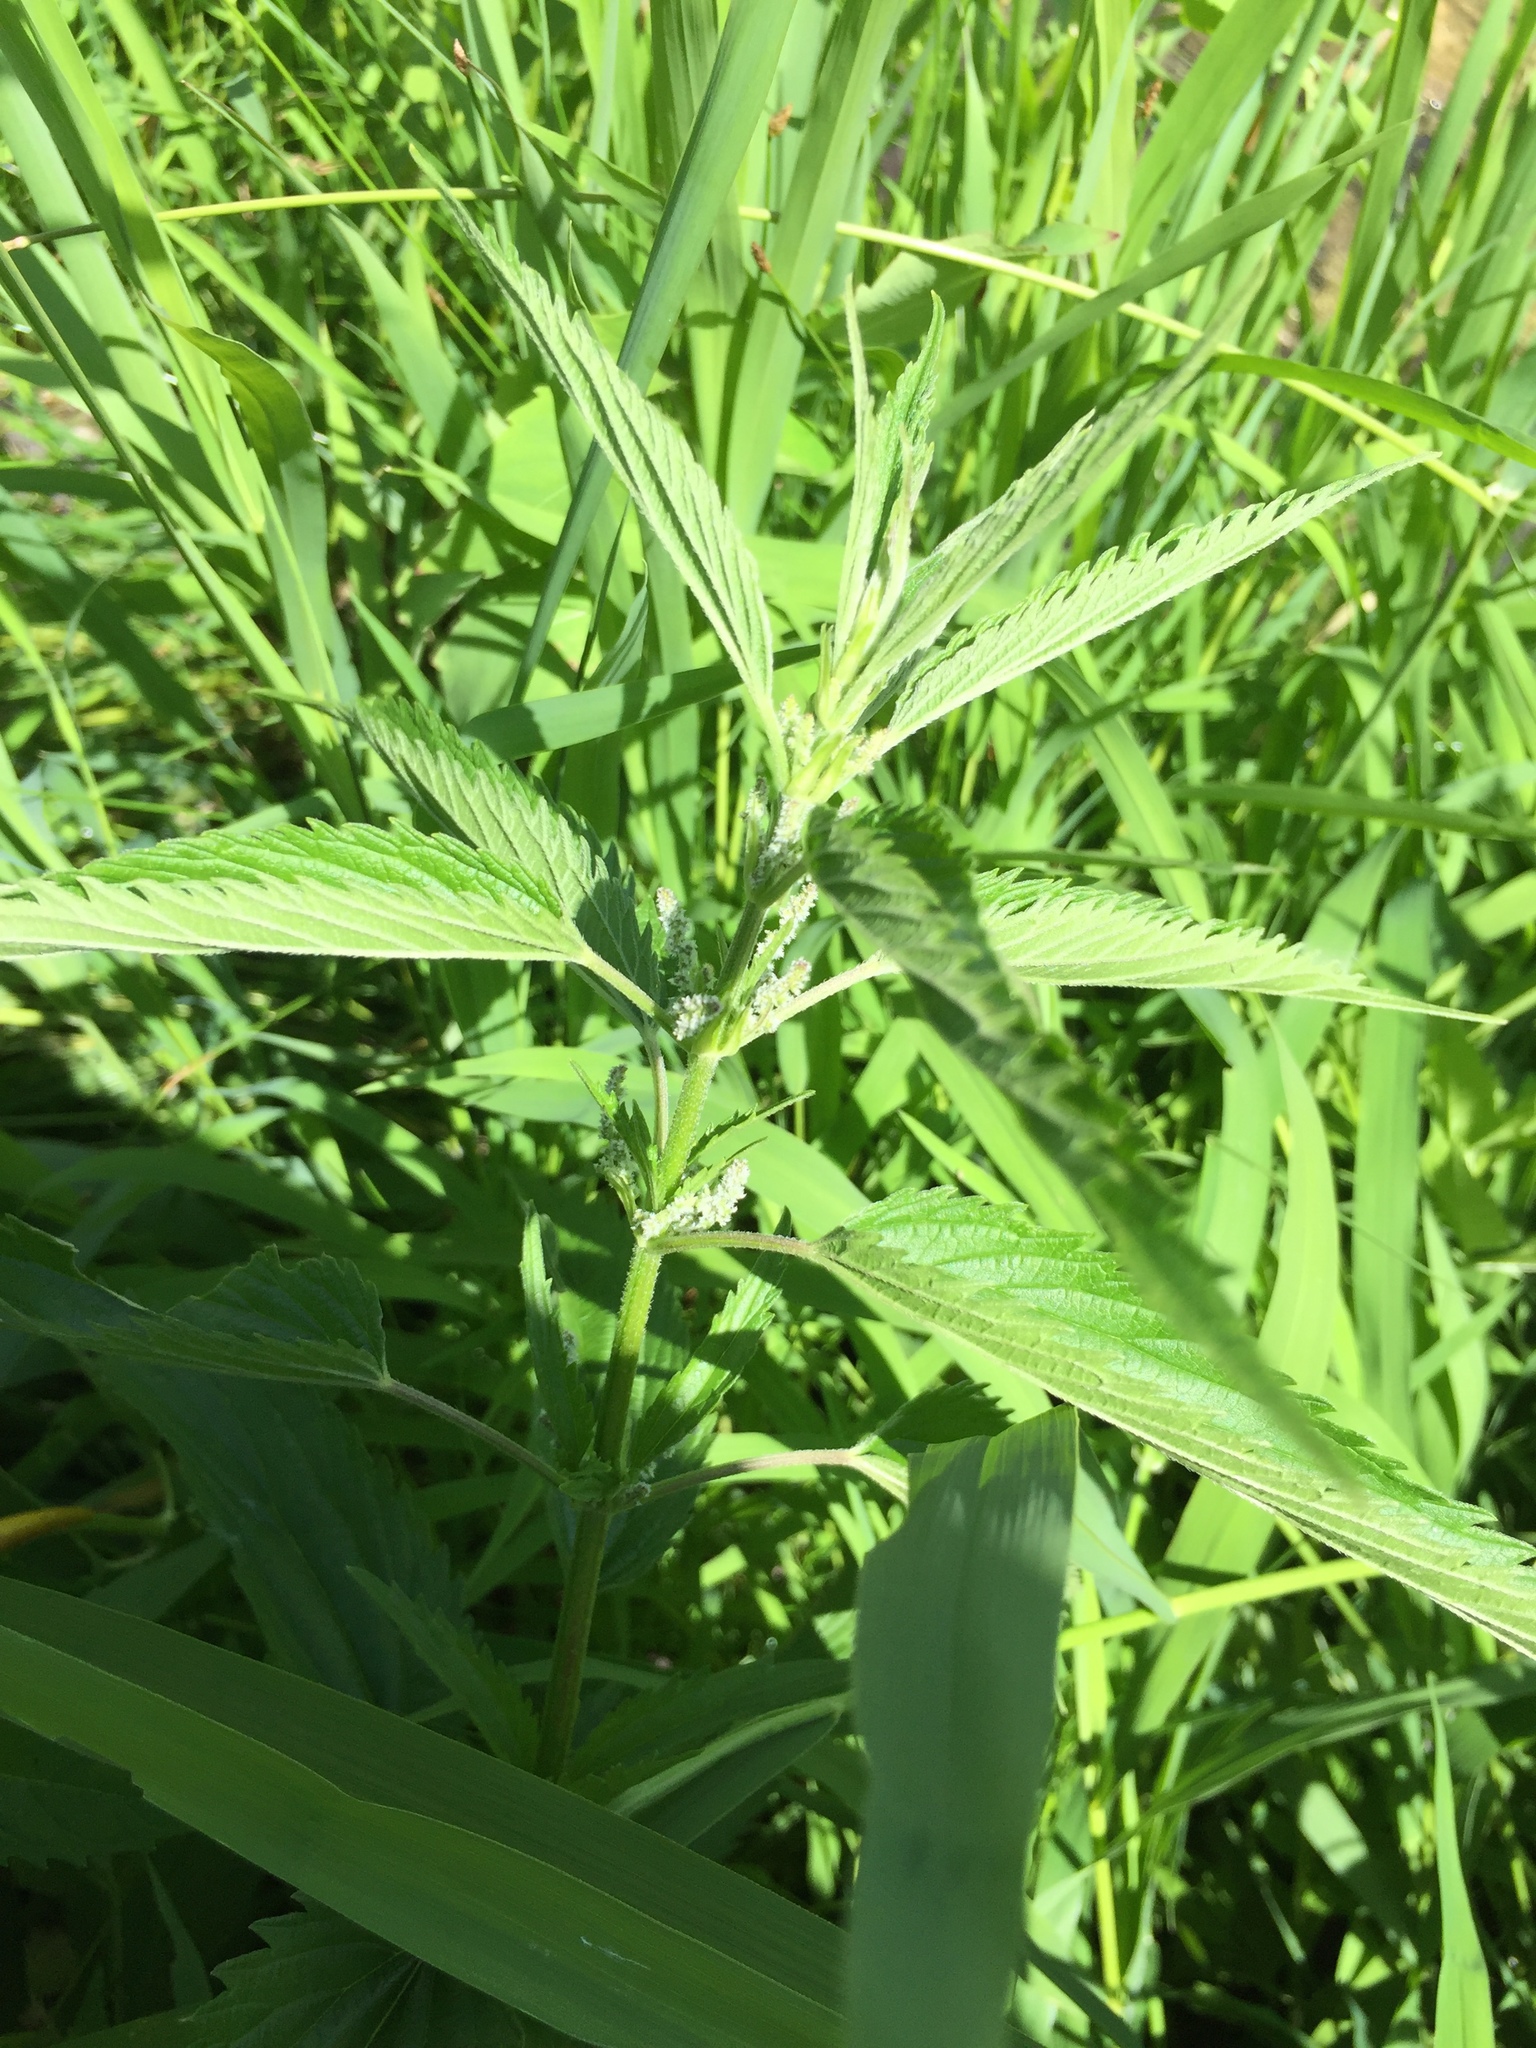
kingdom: Plantae
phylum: Tracheophyta
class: Magnoliopsida
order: Rosales
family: Urticaceae
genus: Urtica
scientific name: Urtica gracilis
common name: Slender stinging nettle
